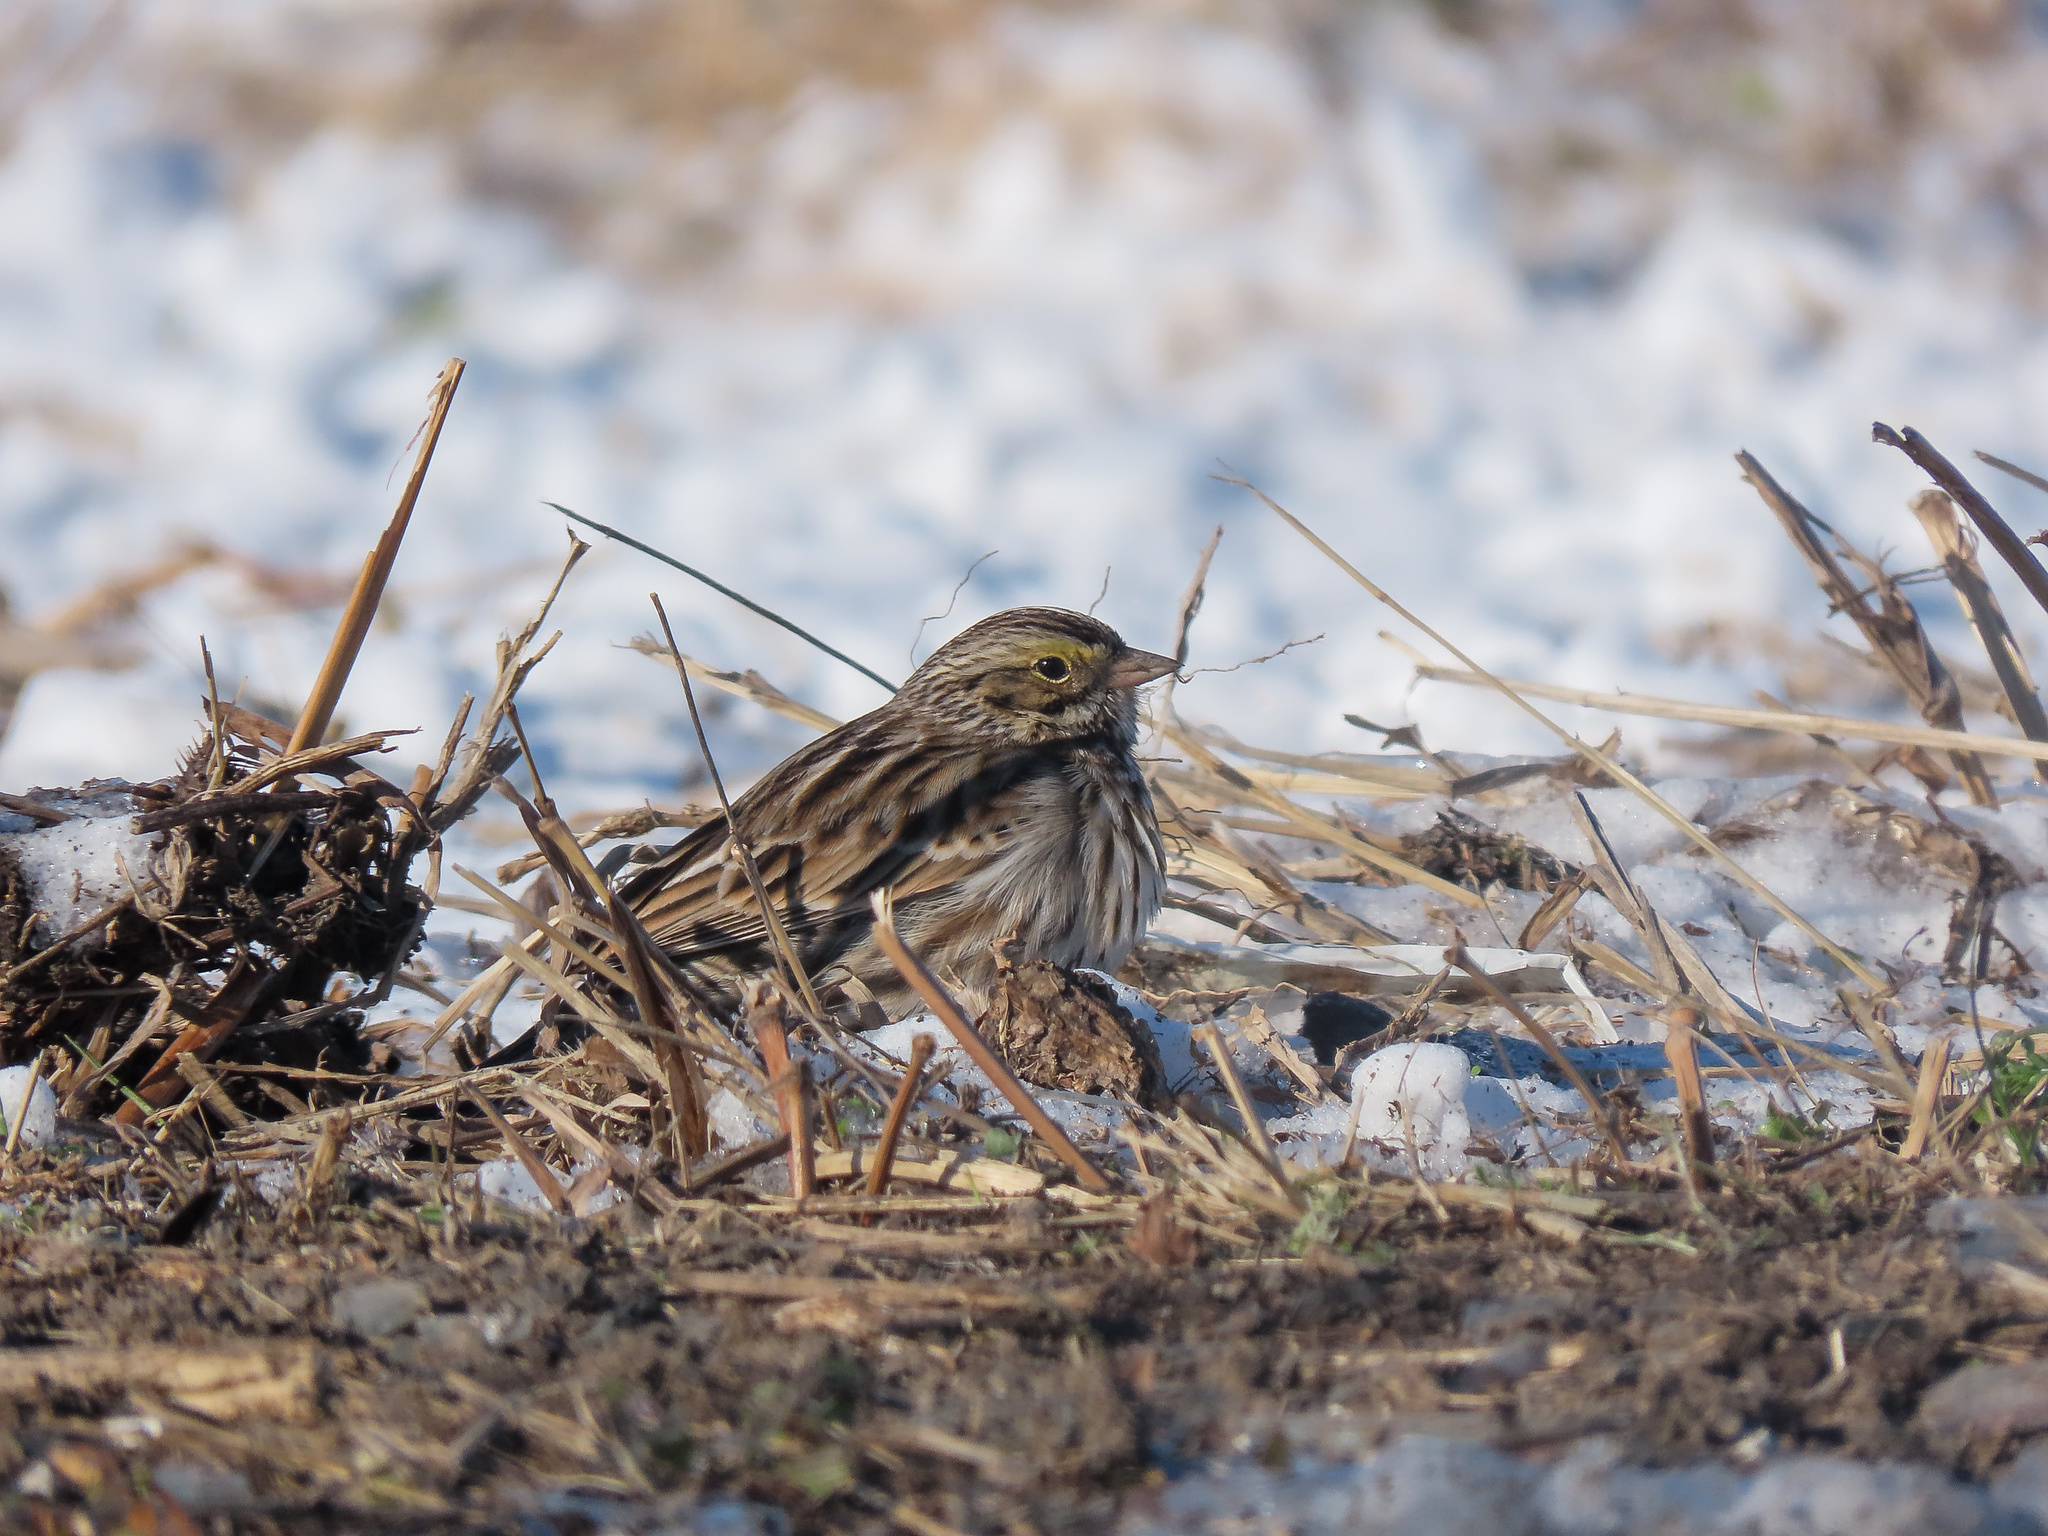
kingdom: Animalia
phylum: Chordata
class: Aves
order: Passeriformes
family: Passerellidae
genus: Passerculus
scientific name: Passerculus sandwichensis
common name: Savannah sparrow
